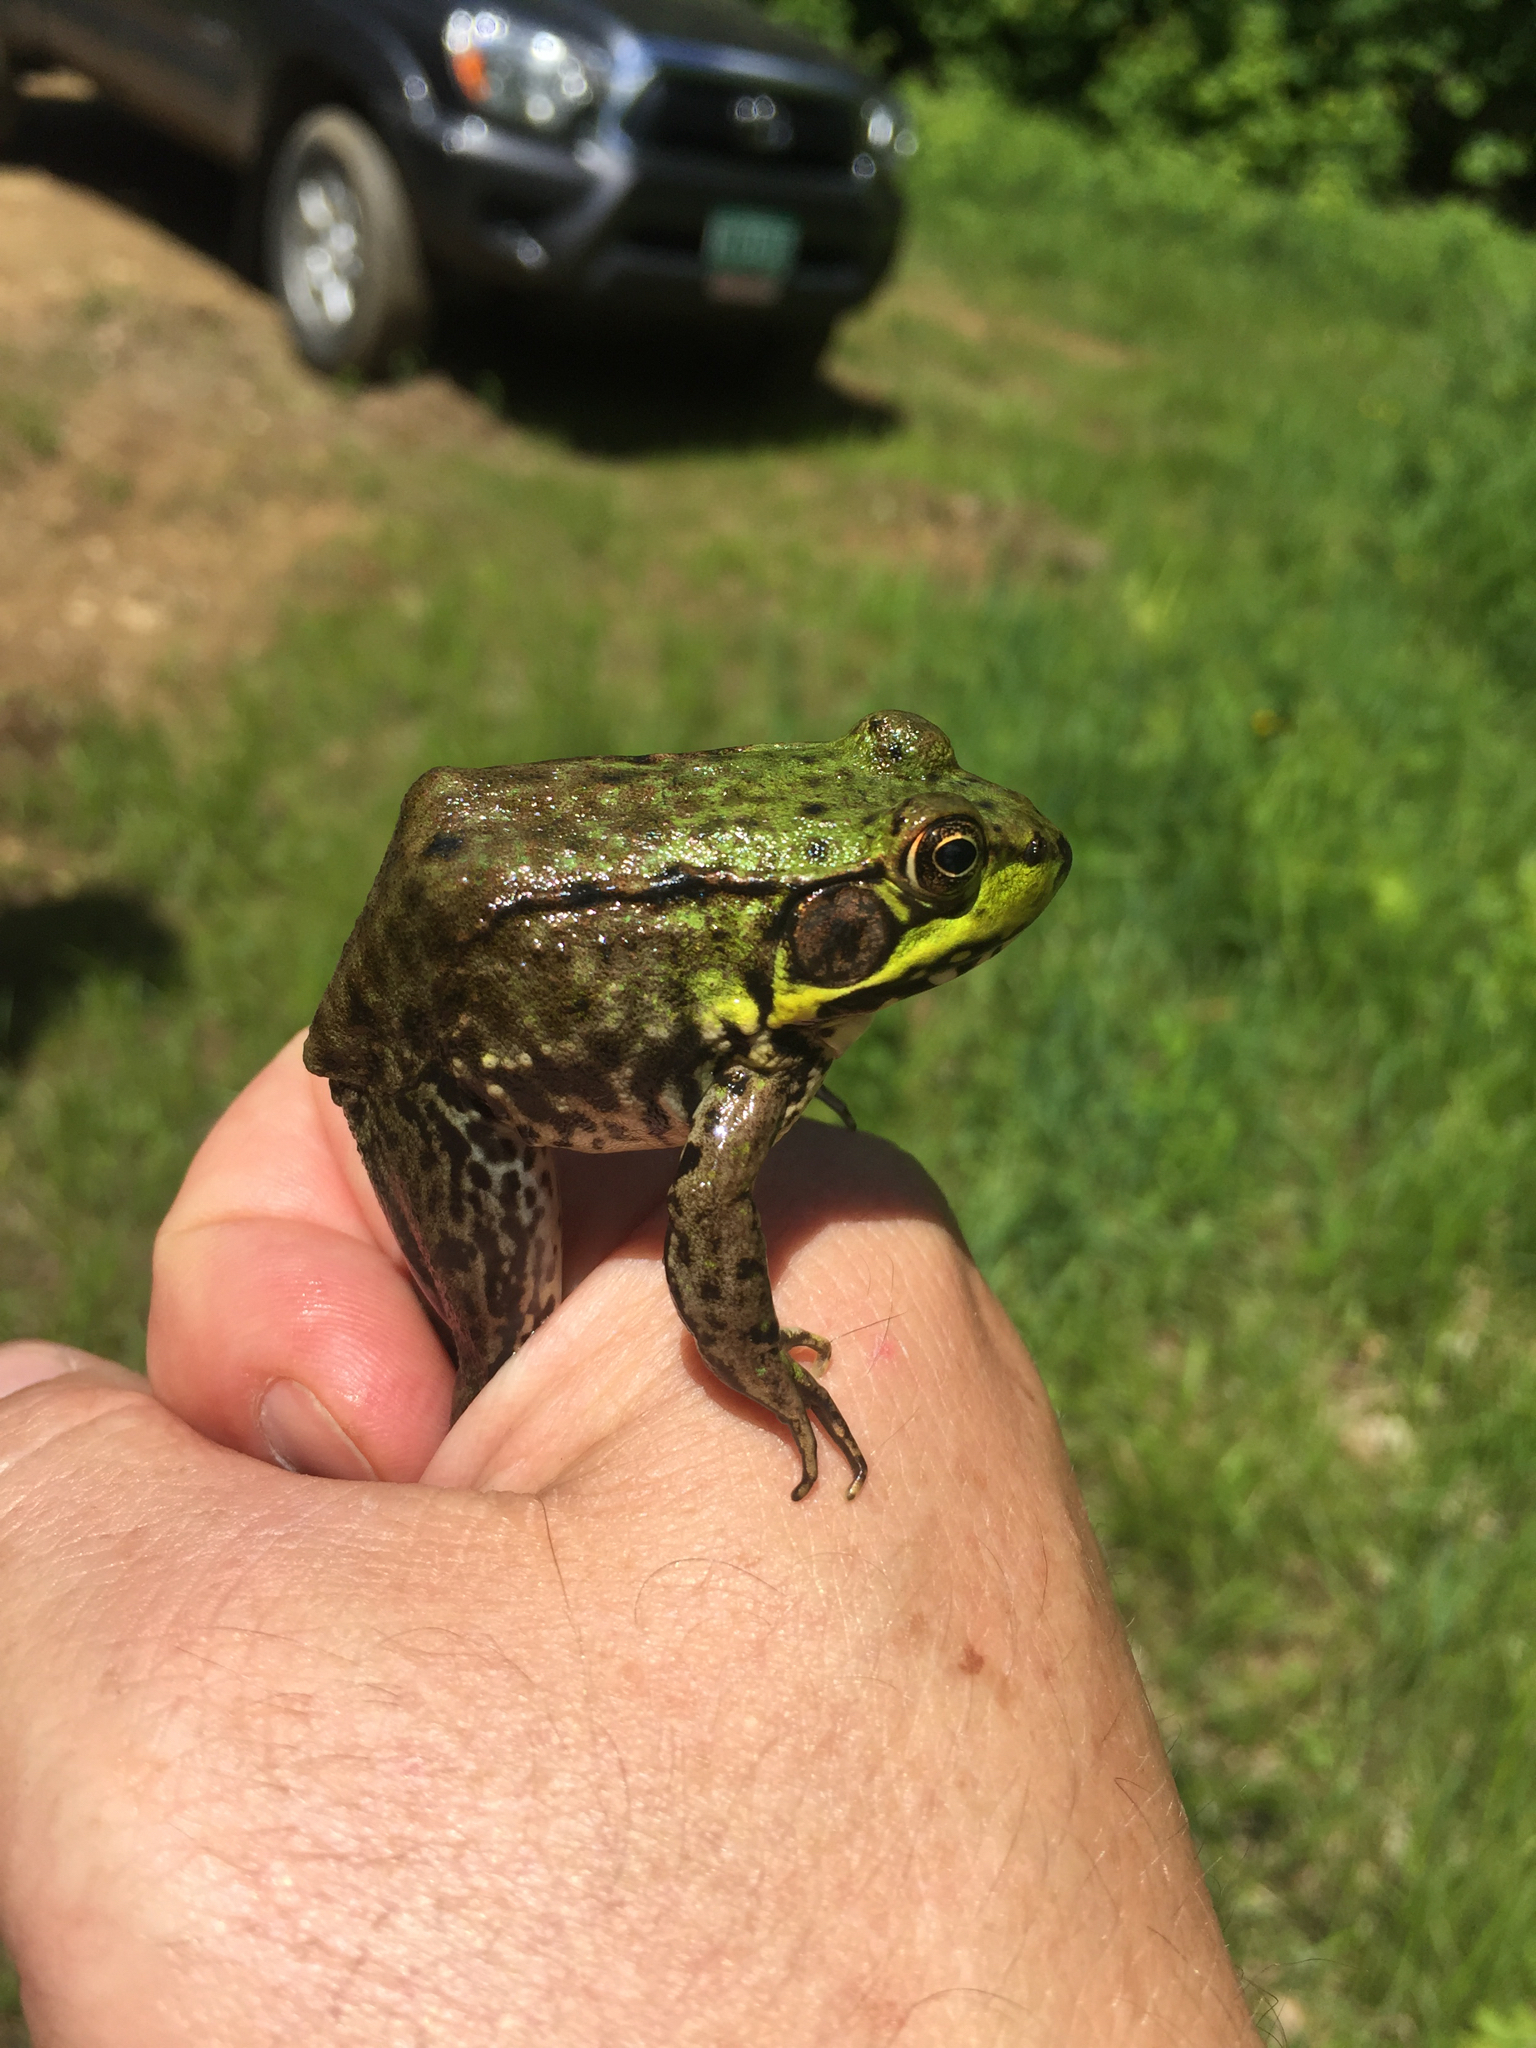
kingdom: Animalia
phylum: Chordata
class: Amphibia
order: Anura
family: Ranidae
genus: Lithobates
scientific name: Lithobates clamitans
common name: Green frog
